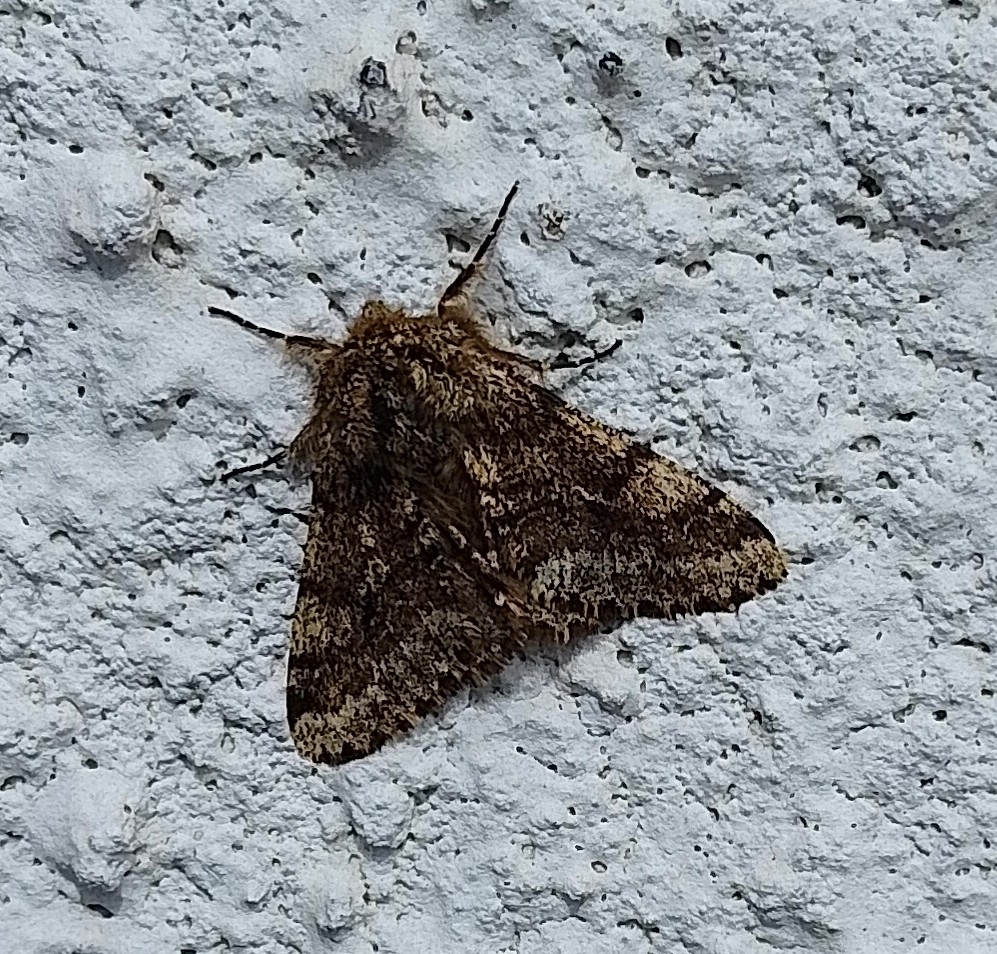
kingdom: Animalia
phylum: Arthropoda
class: Insecta
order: Lepidoptera
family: Geometridae
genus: Lycia
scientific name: Lycia hirtaria
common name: Brindled beauty
